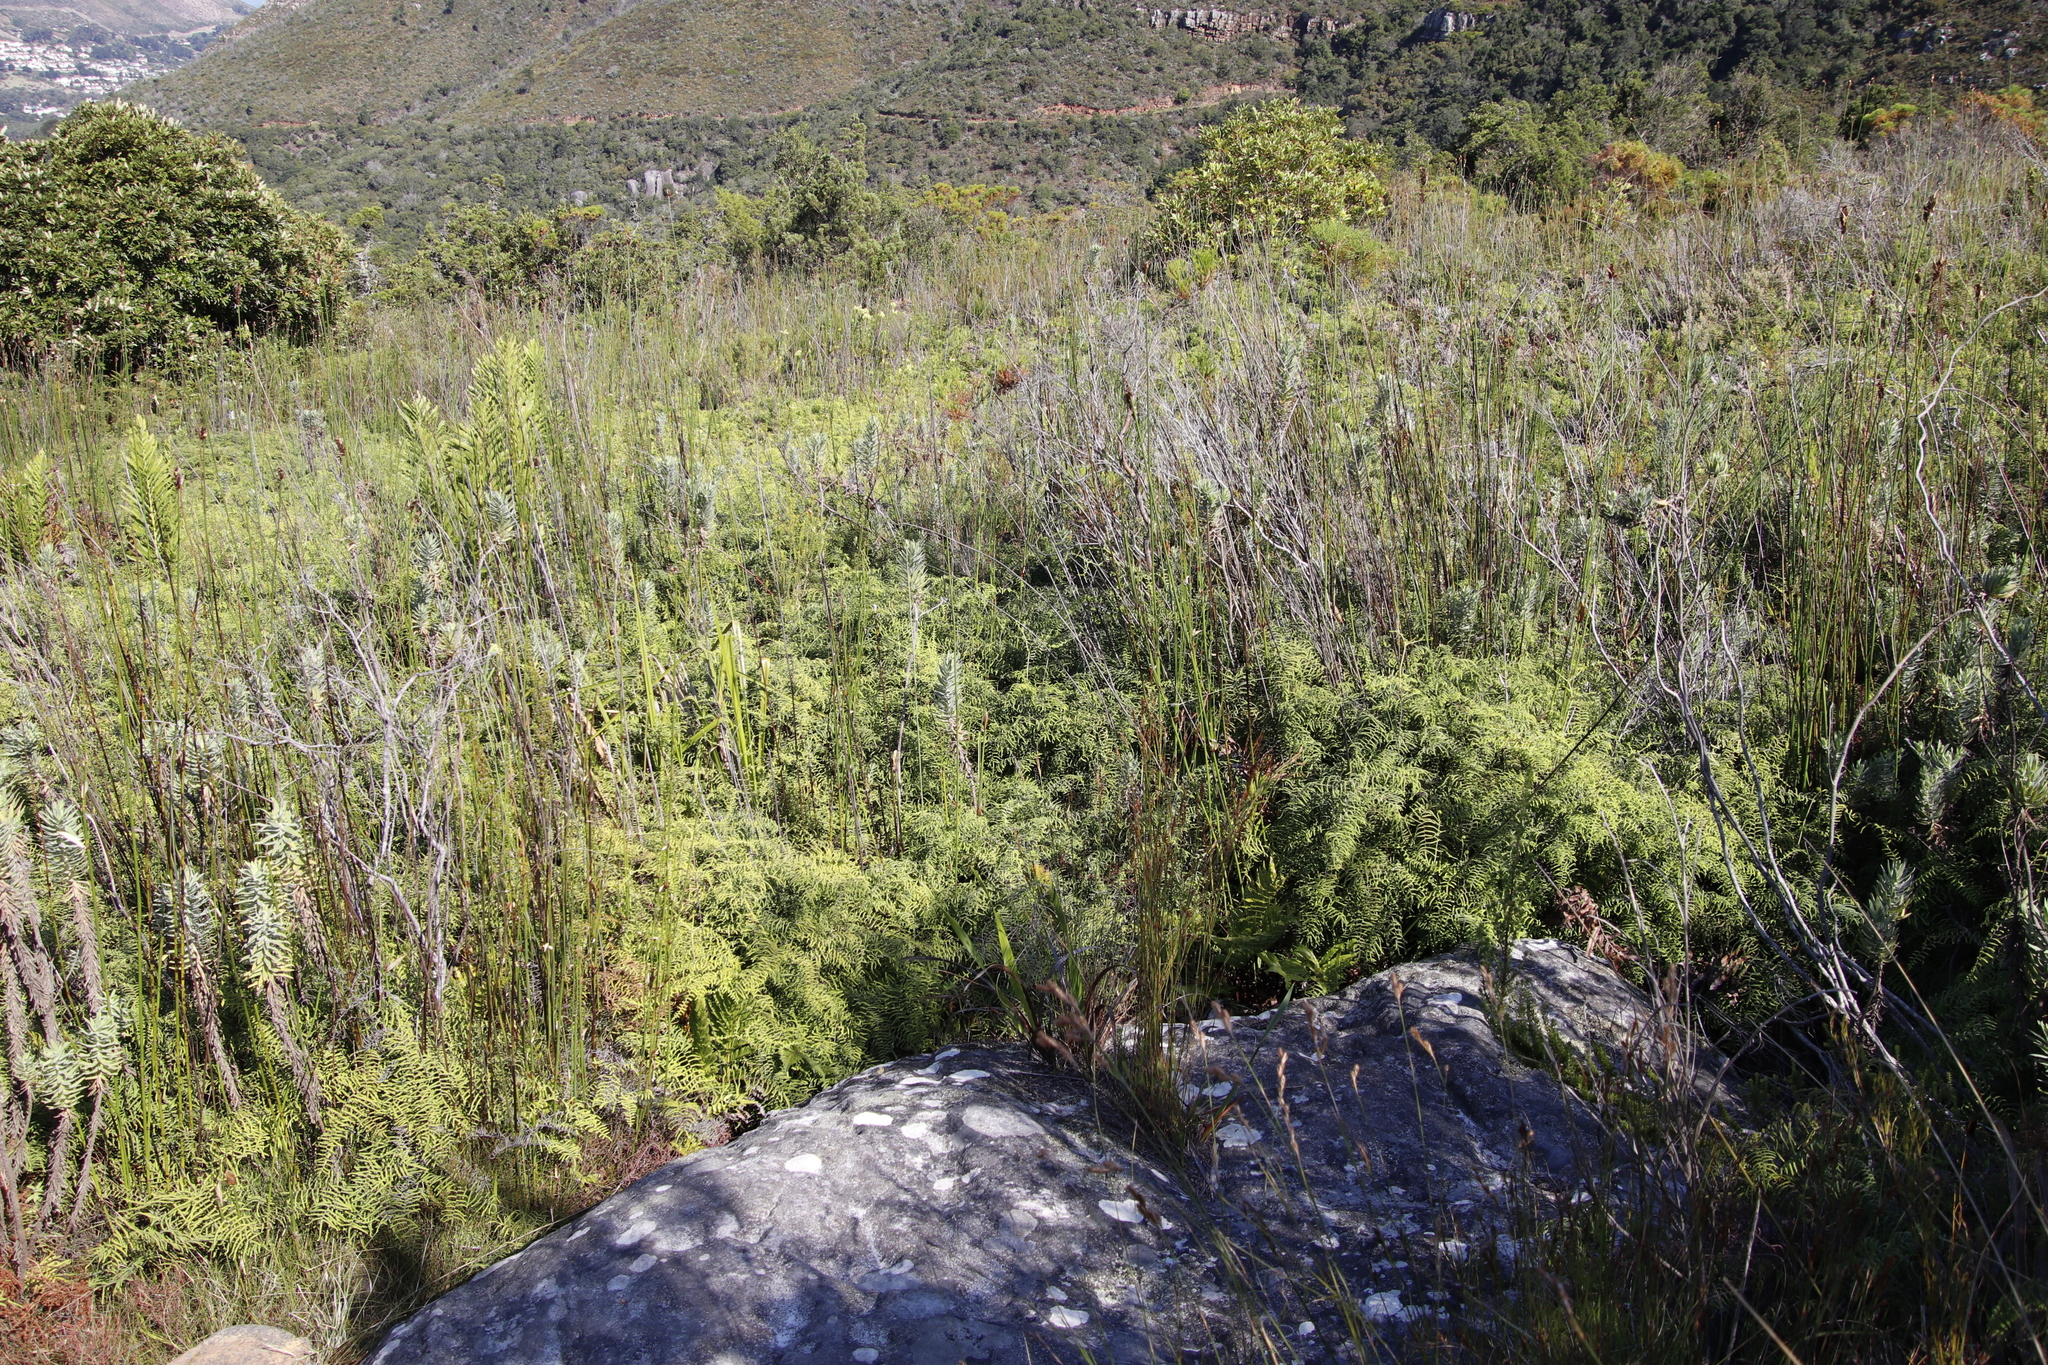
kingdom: Plantae
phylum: Tracheophyta
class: Polypodiopsida
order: Gleicheniales
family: Gleicheniaceae
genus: Gleichenia
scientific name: Gleichenia polypodioides
